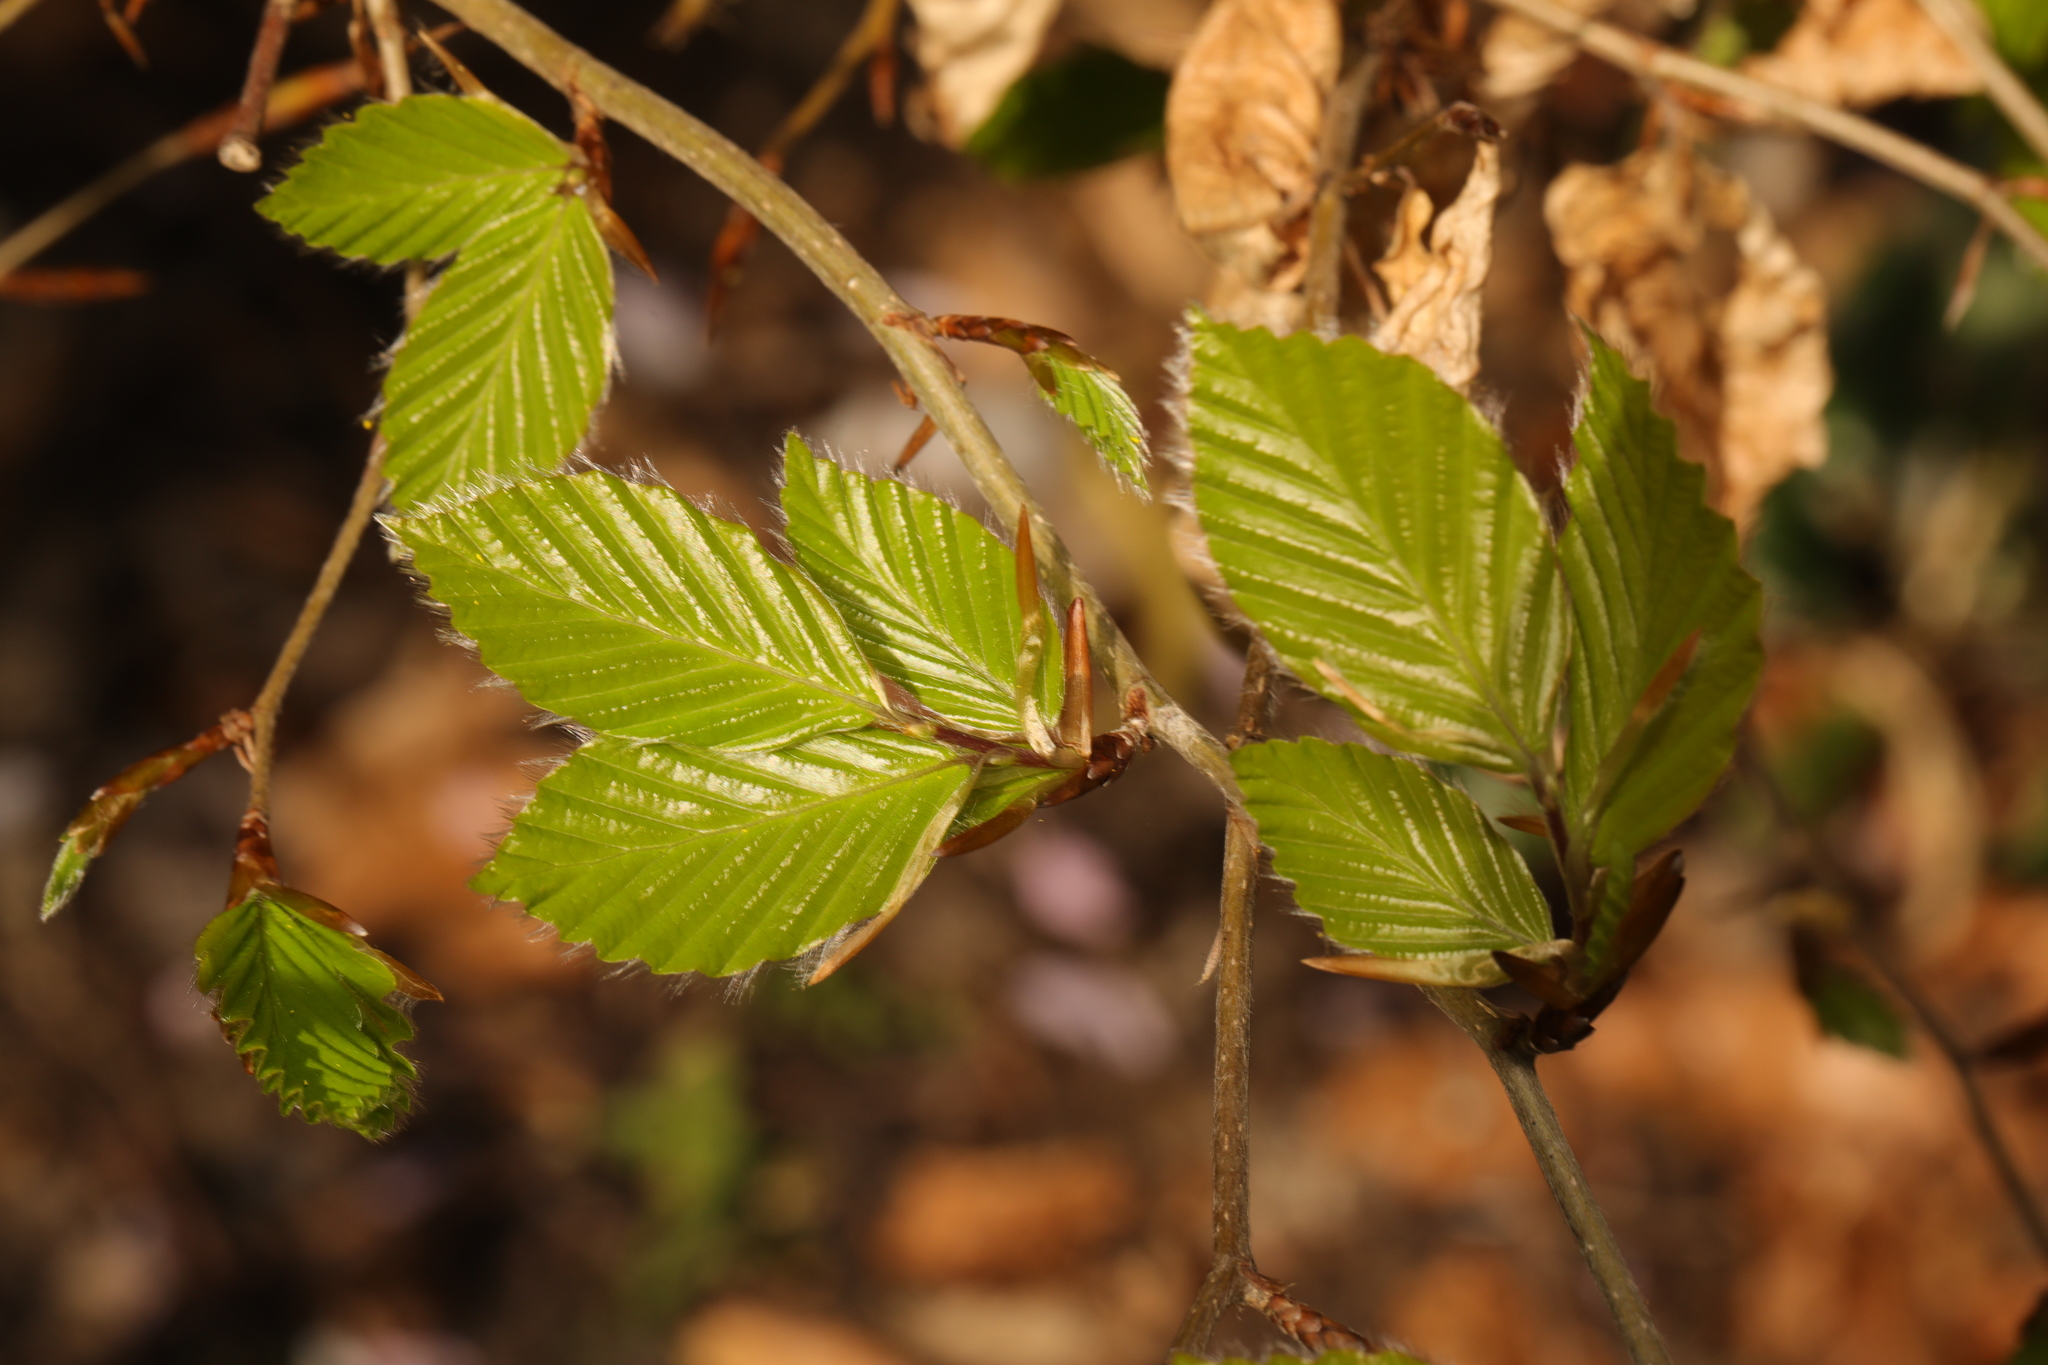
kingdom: Plantae
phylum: Tracheophyta
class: Magnoliopsida
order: Fagales
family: Fagaceae
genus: Fagus
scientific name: Fagus sylvatica
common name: Beech
